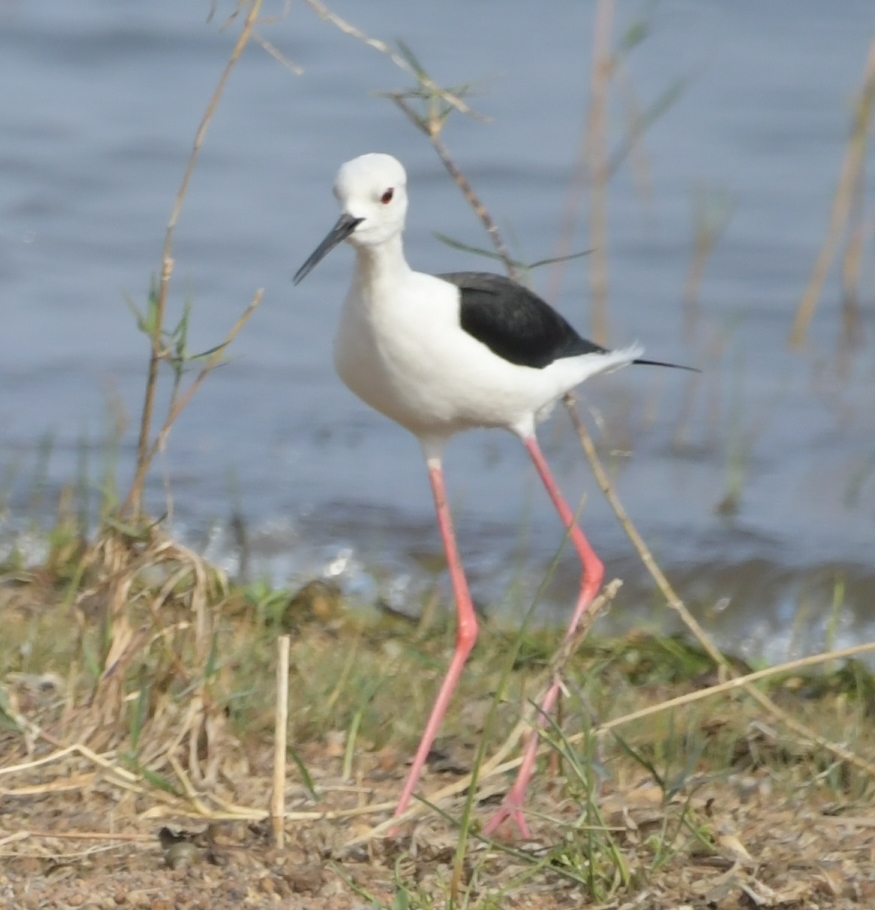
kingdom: Animalia
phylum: Chordata
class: Aves
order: Charadriiformes
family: Recurvirostridae
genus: Himantopus
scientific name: Himantopus himantopus
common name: Black-winged stilt
